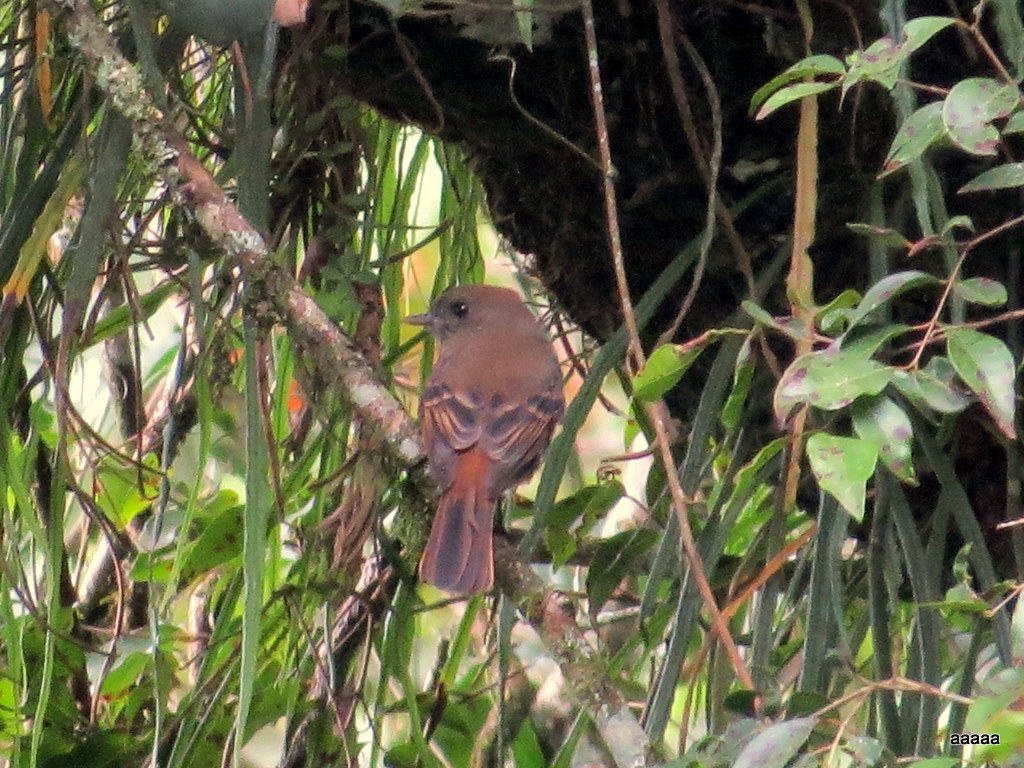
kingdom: Animalia
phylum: Chordata
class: Aves
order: Passeriformes
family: Tyrannidae
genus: Knipolegus
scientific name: Knipolegus cabanisi
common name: Plumbeous tyrant
